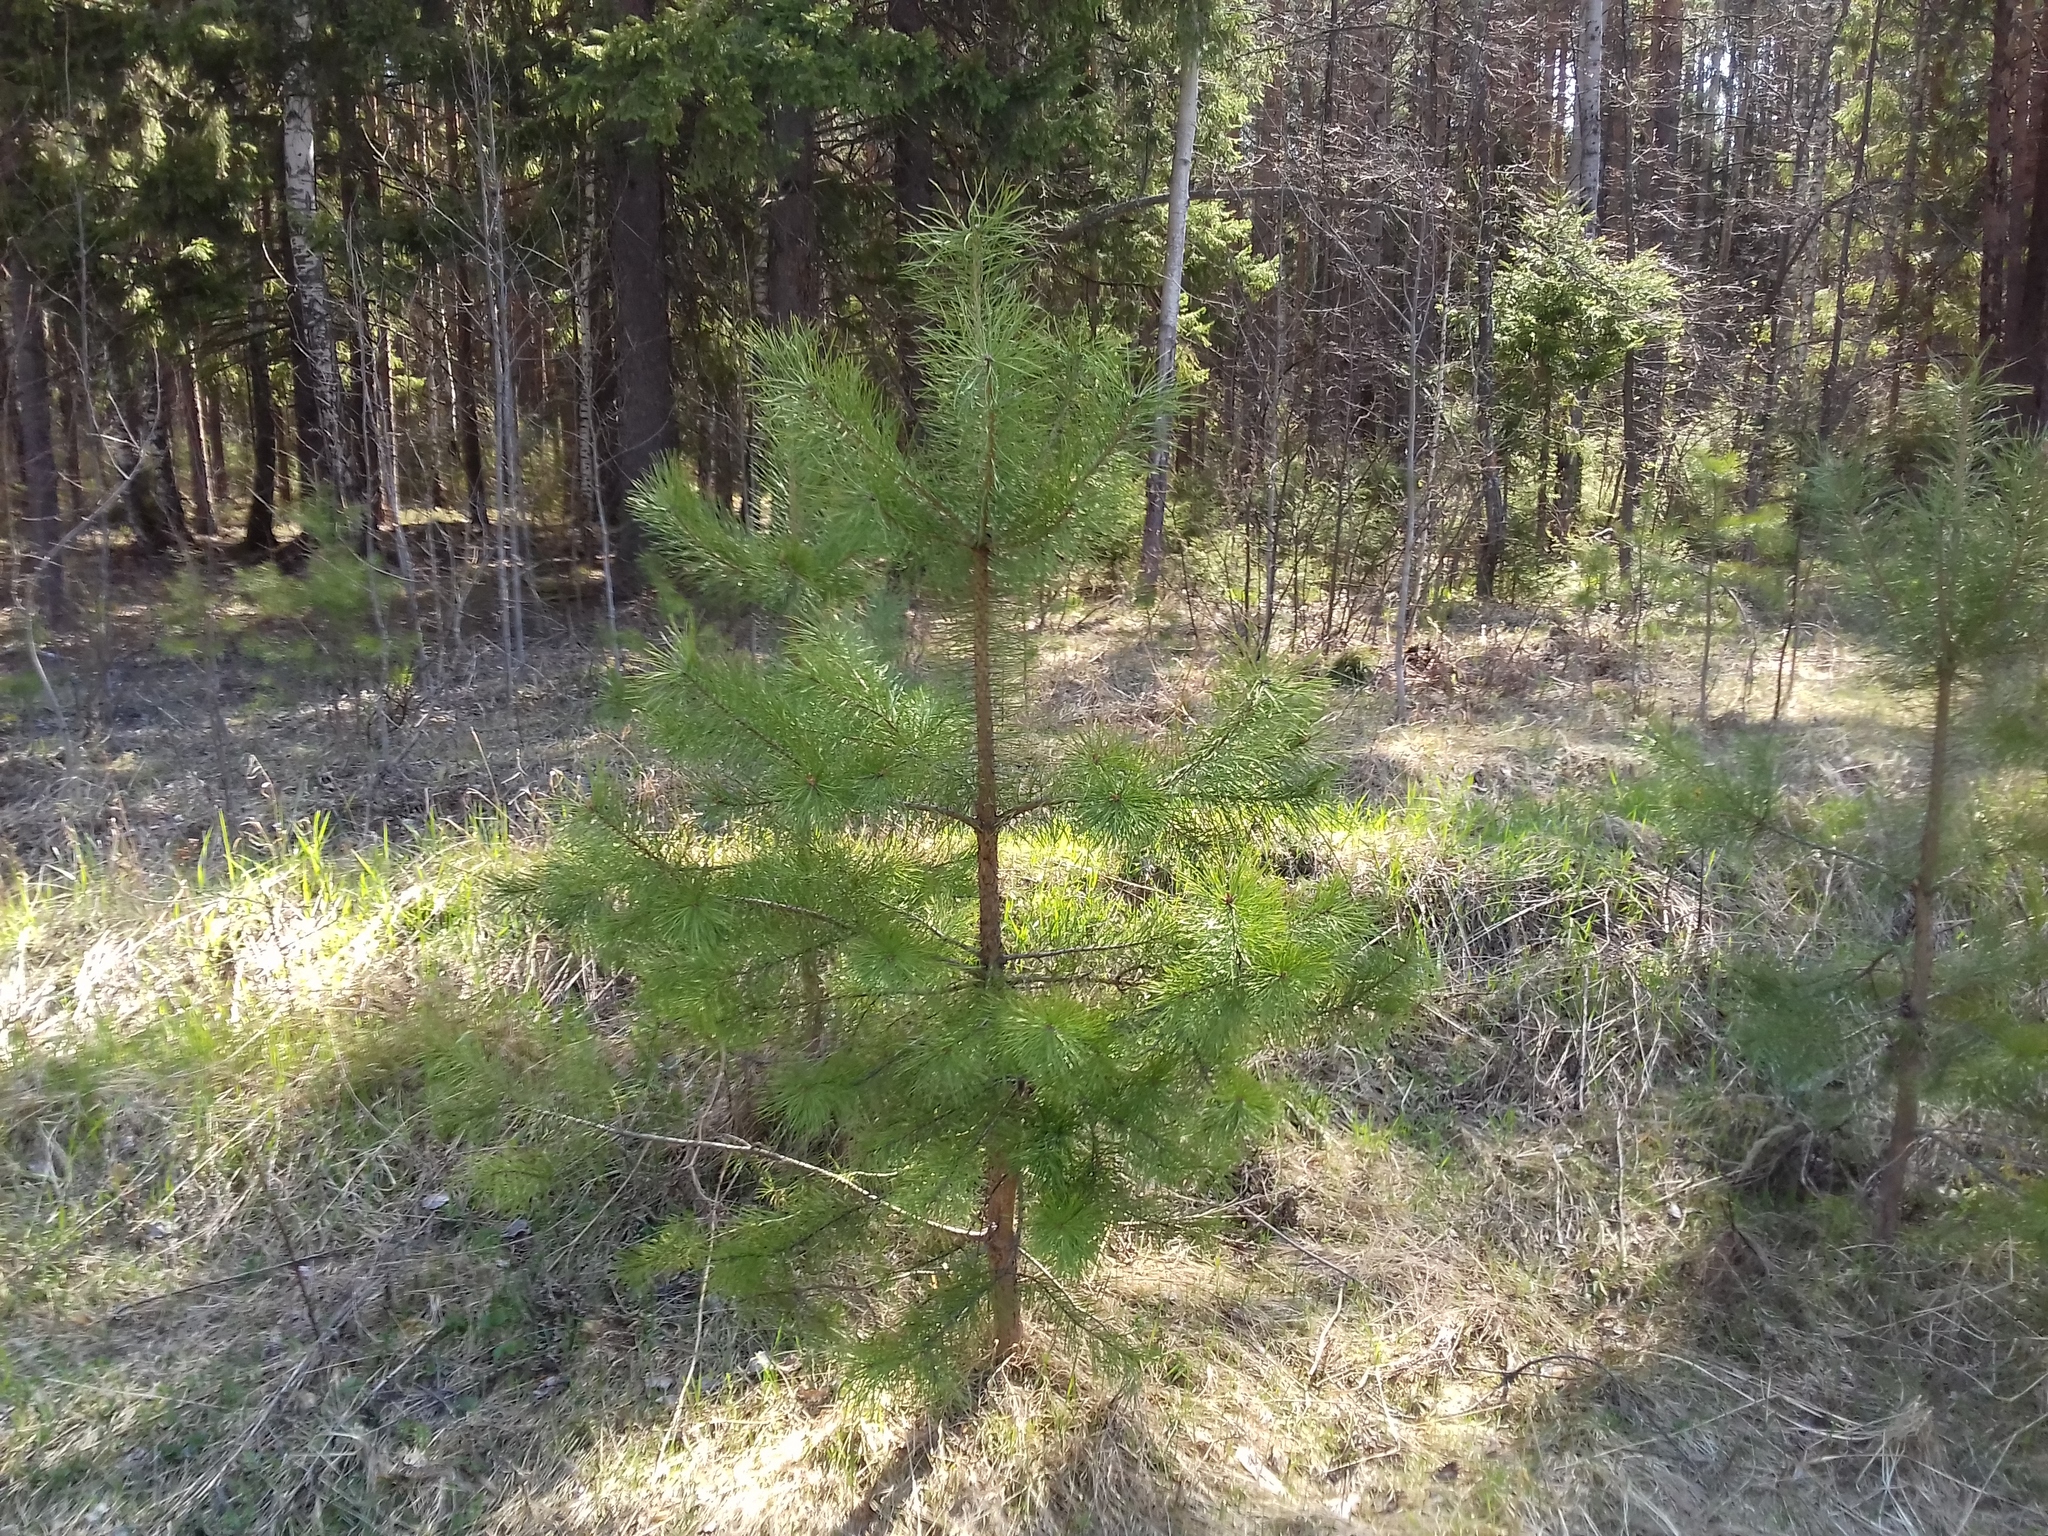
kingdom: Plantae
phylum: Tracheophyta
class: Pinopsida
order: Pinales
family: Pinaceae
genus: Pinus
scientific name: Pinus sylvestris
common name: Scots pine
